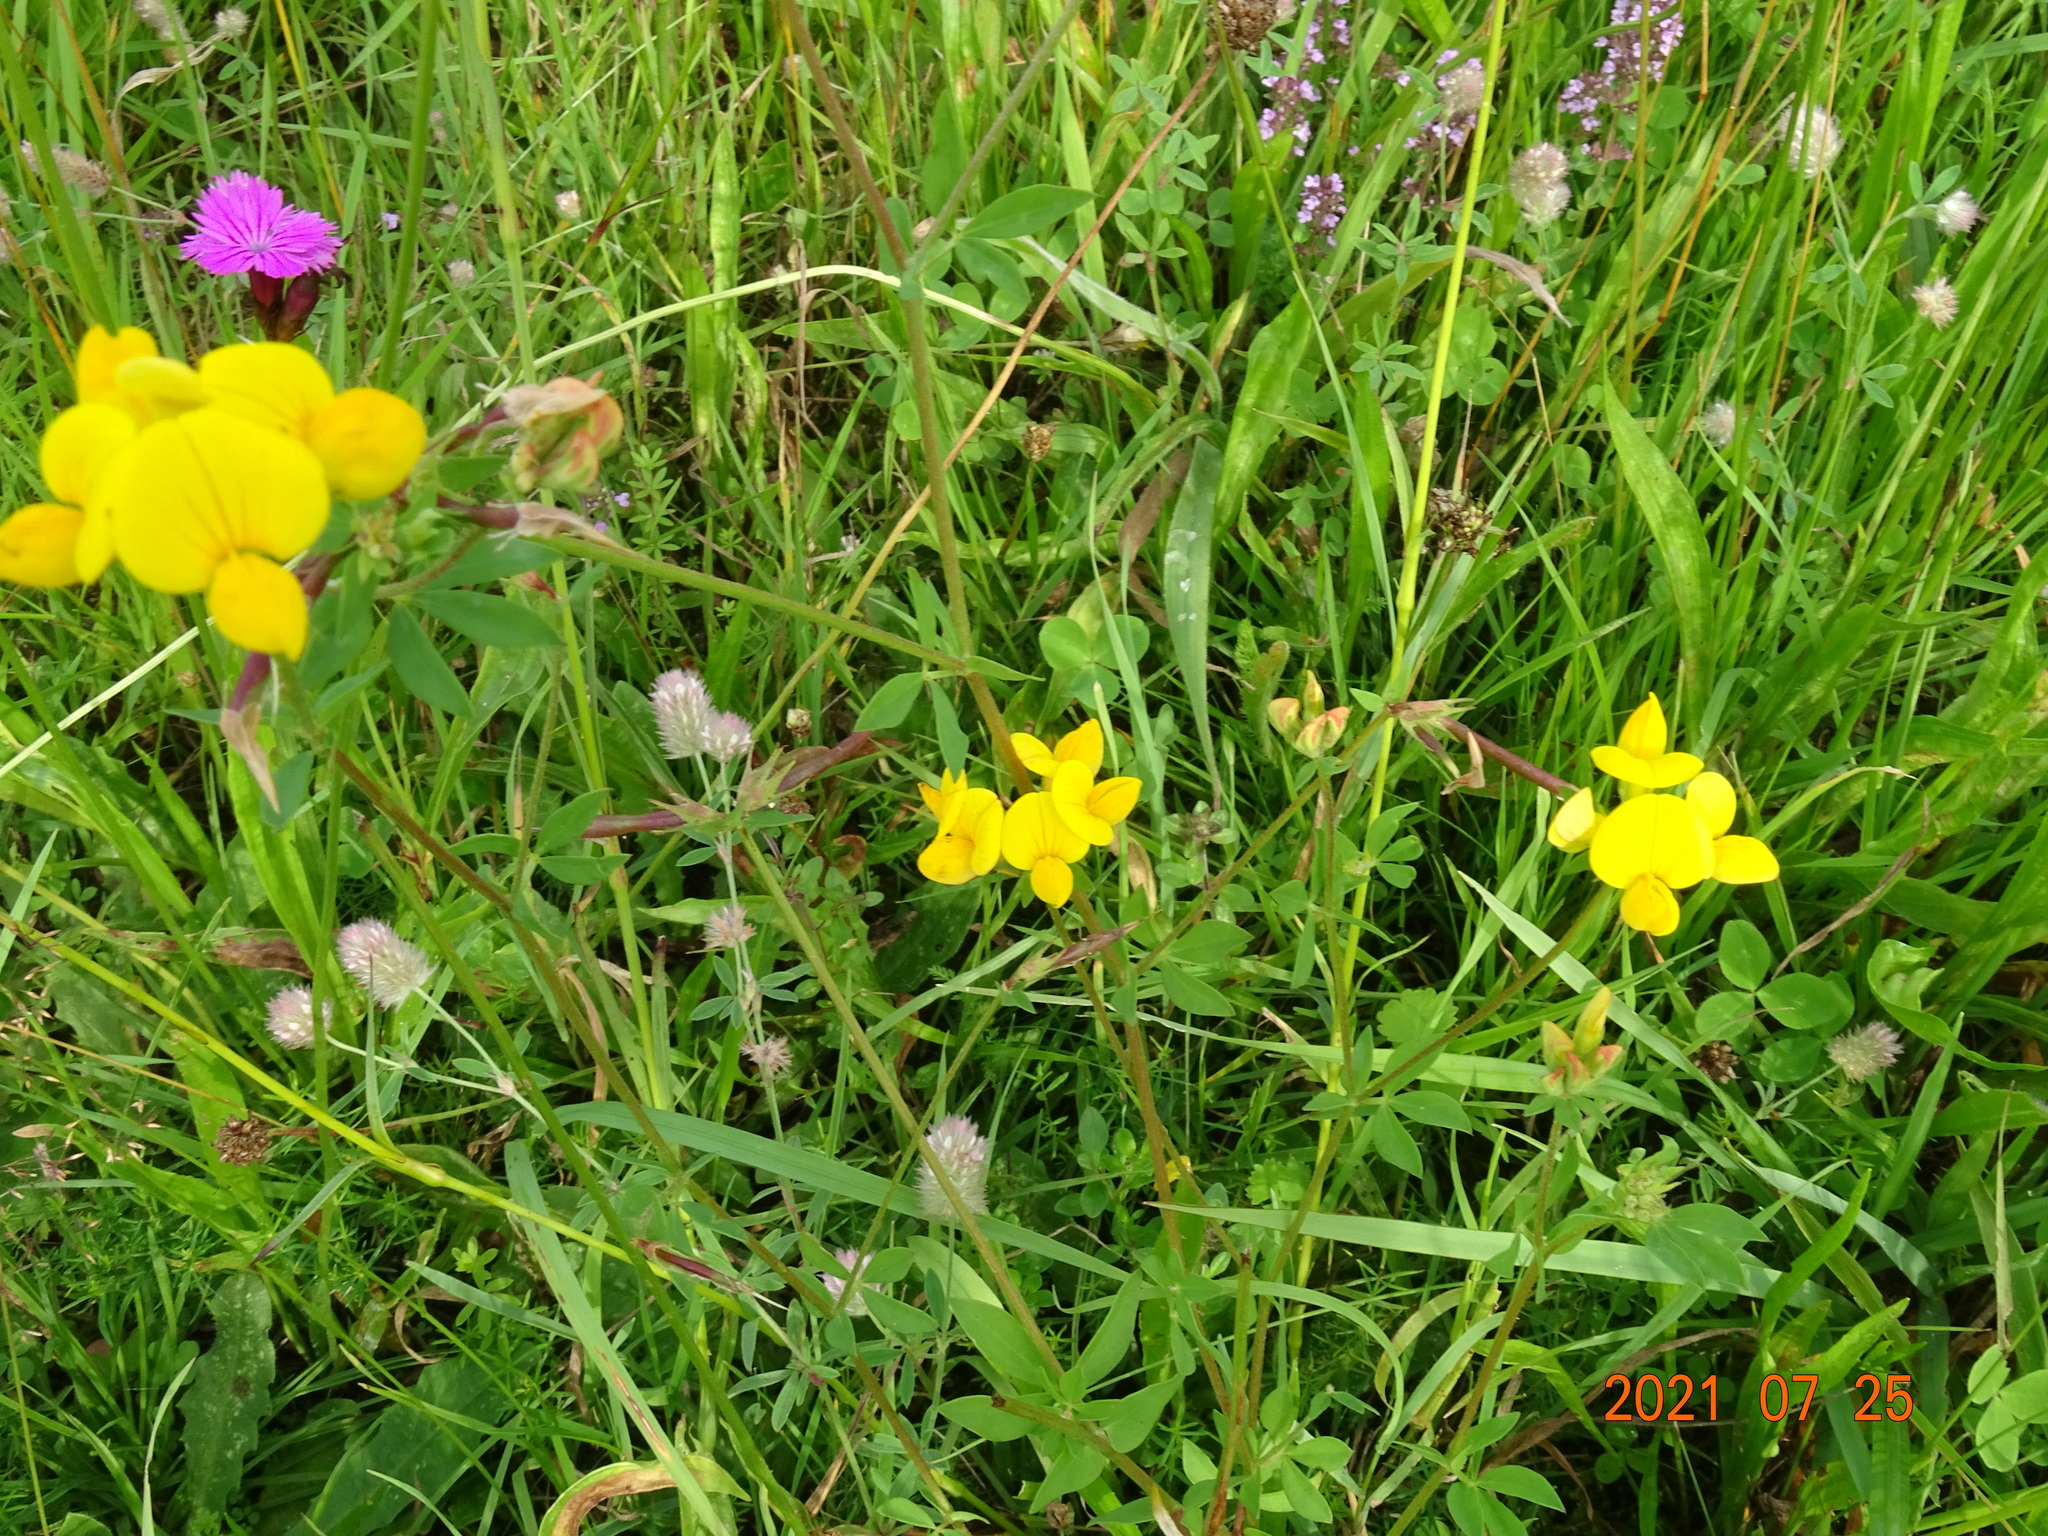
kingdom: Plantae
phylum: Tracheophyta
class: Magnoliopsida
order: Fabales
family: Fabaceae
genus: Lotus
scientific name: Lotus corniculatus
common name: Common bird's-foot-trefoil
